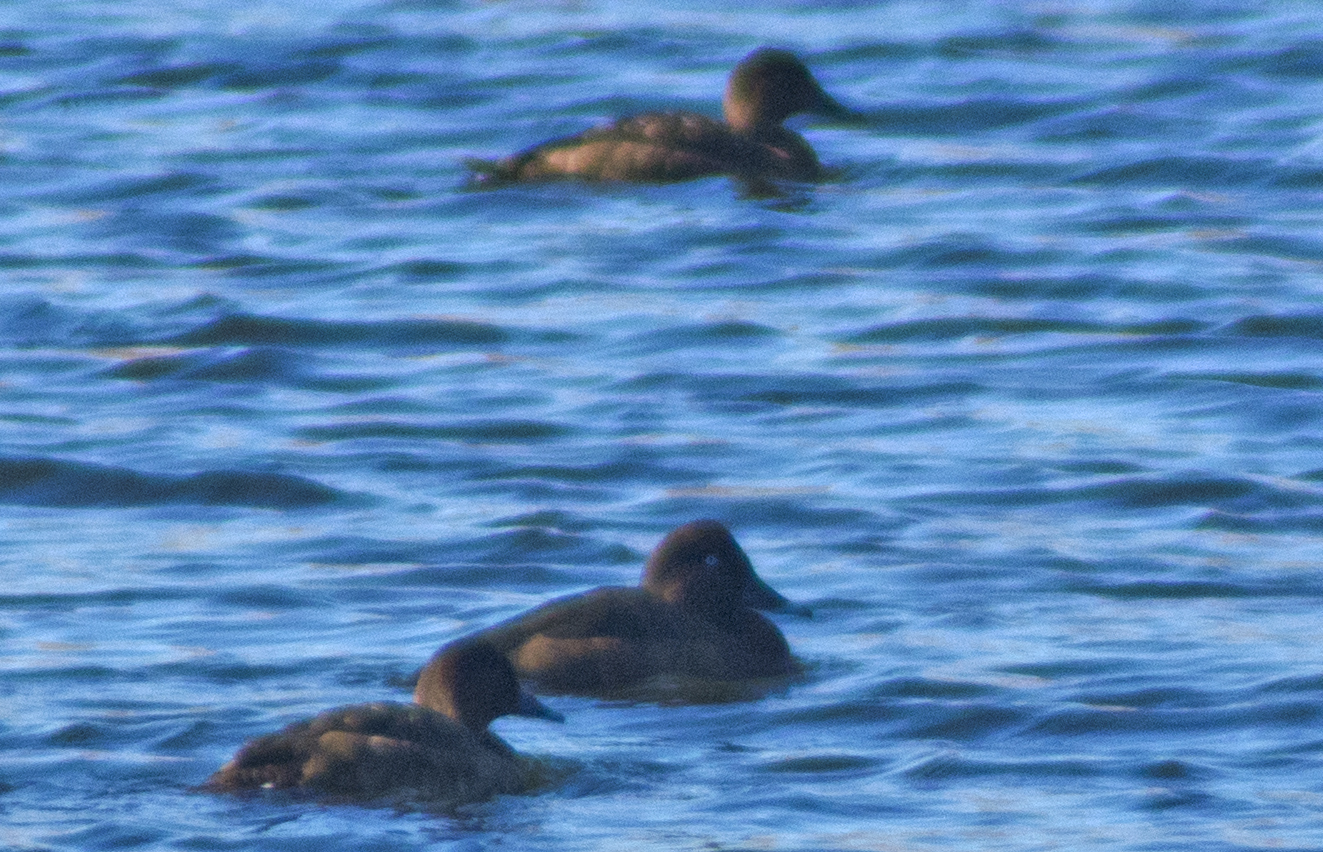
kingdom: Animalia
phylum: Chordata
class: Aves
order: Anseriformes
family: Anatidae
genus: Aythya
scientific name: Aythya australis
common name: Hardhead
